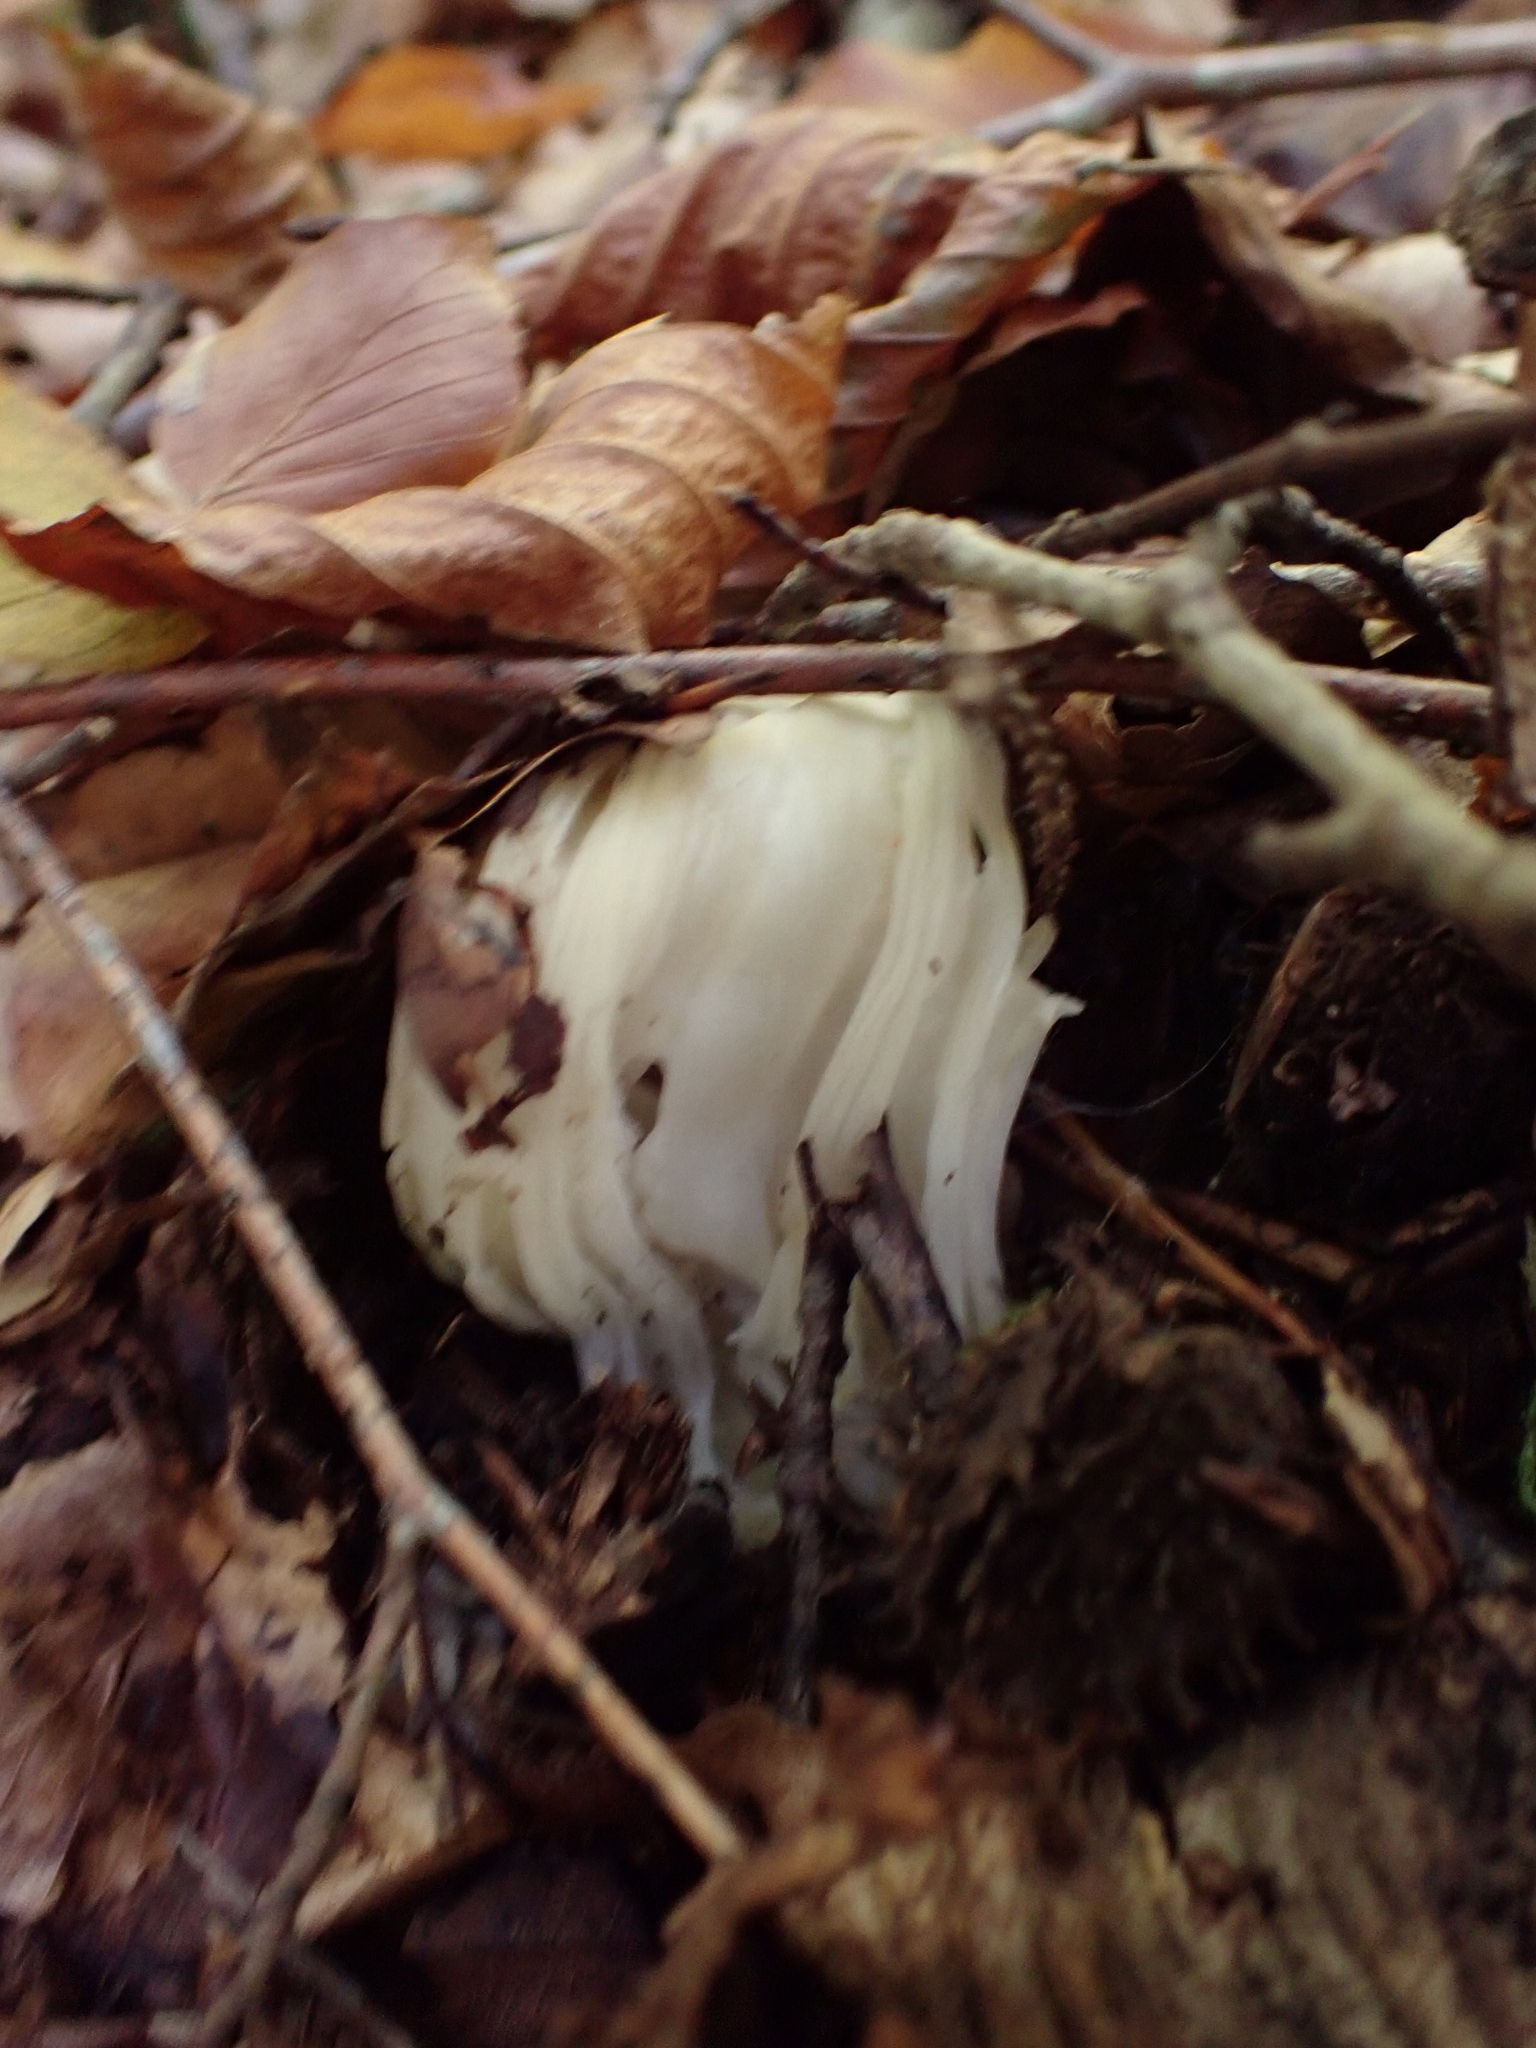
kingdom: Fungi
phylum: Ascomycota
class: Pezizomycetes
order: Pezizales
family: Helvellaceae
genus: Helvella
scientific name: Helvella crispa
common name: White saddle
